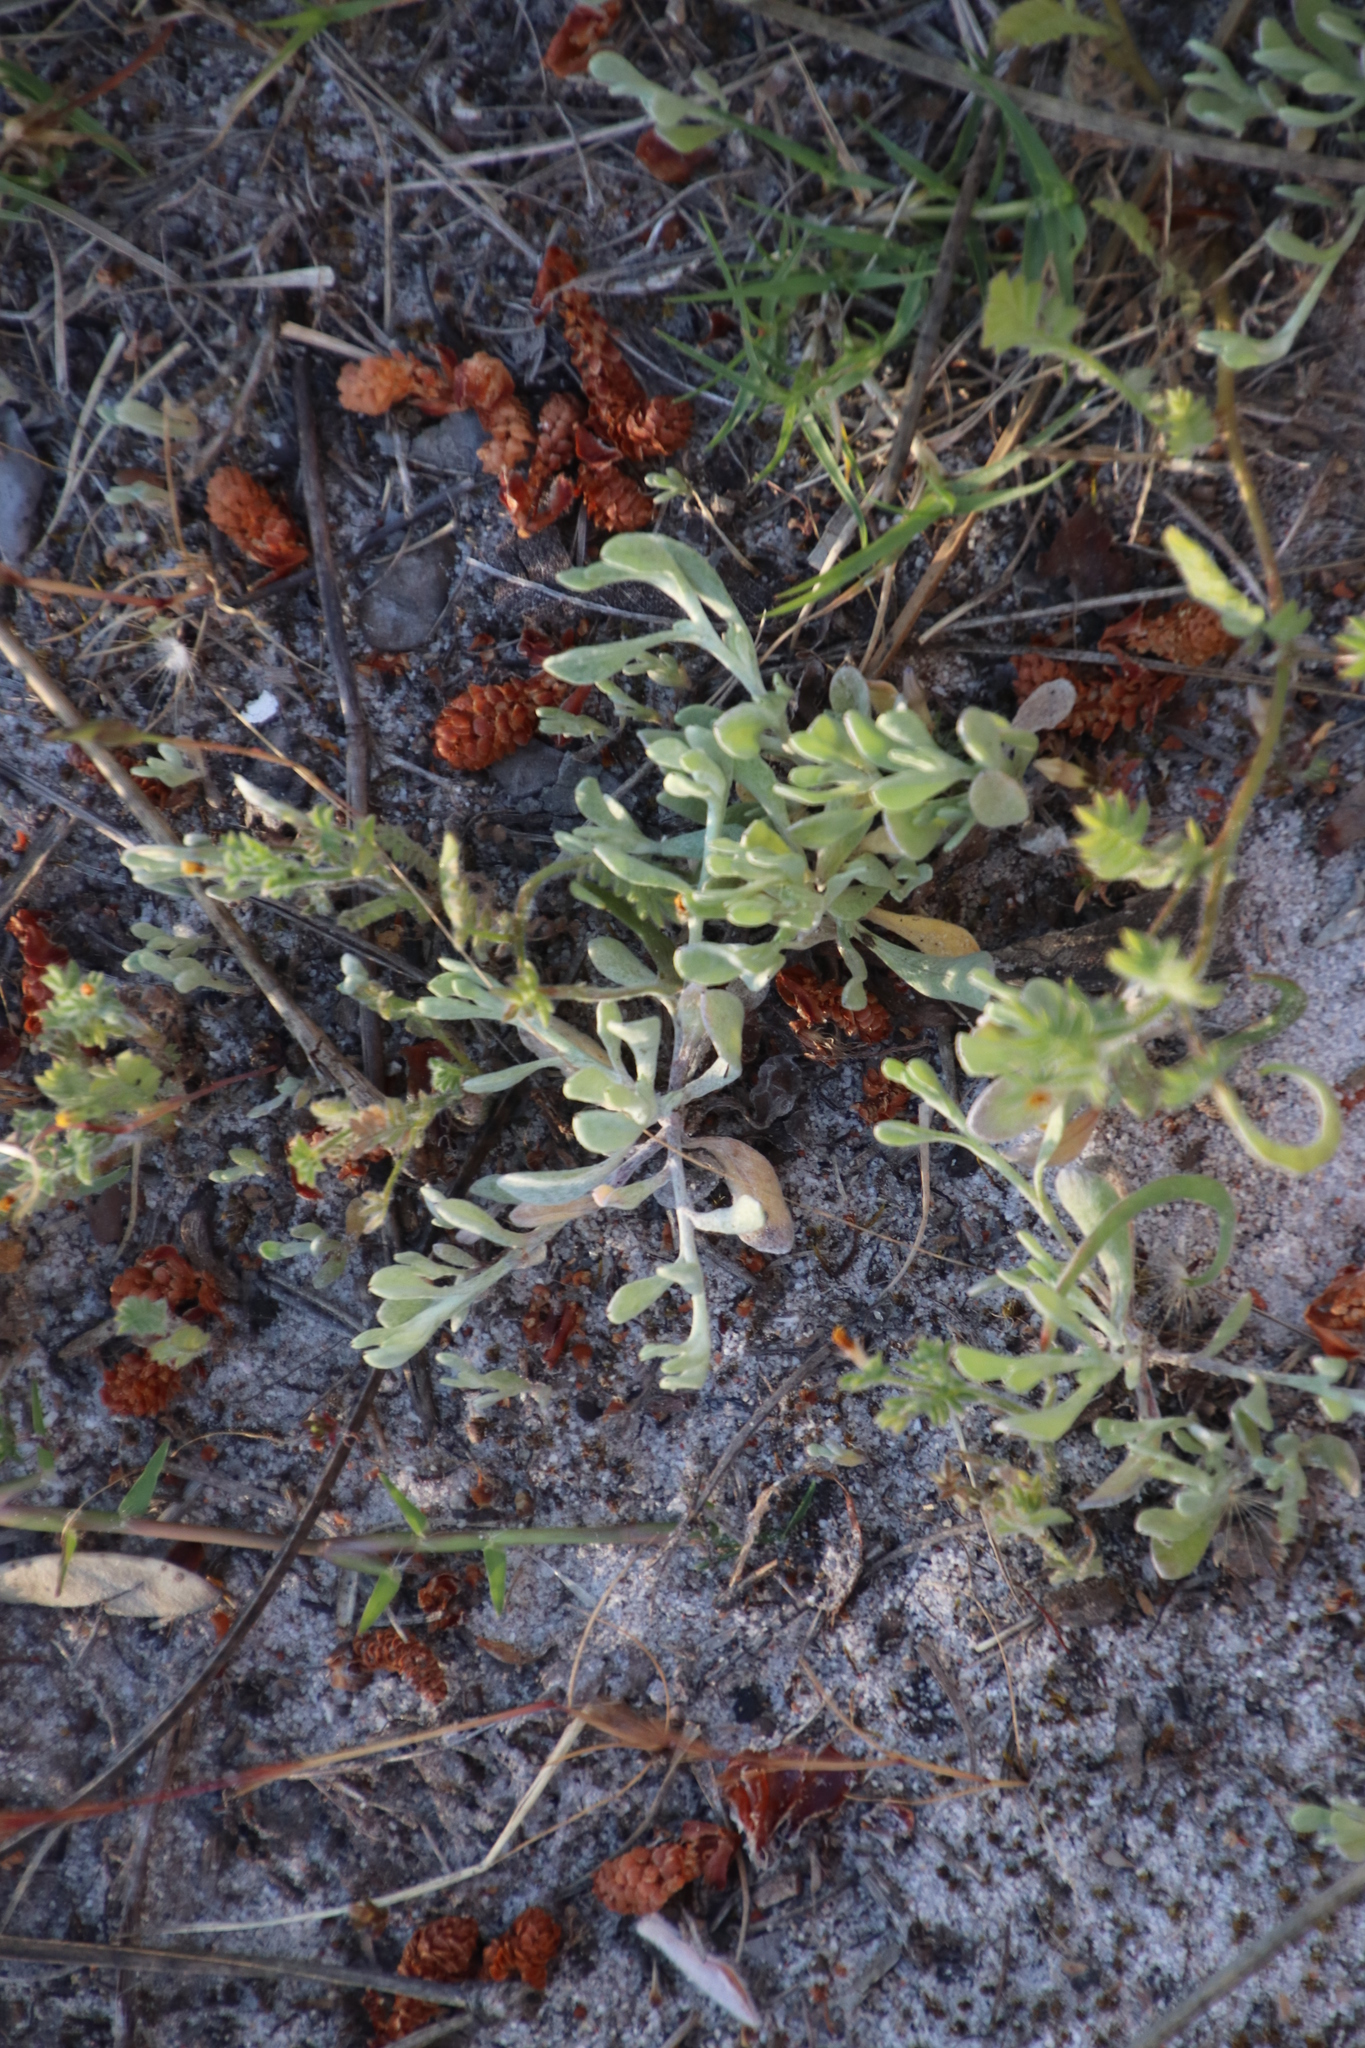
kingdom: Plantae
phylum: Tracheophyta
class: Magnoliopsida
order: Asterales
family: Asteraceae
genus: Helichrysum
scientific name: Helichrysum indicum
